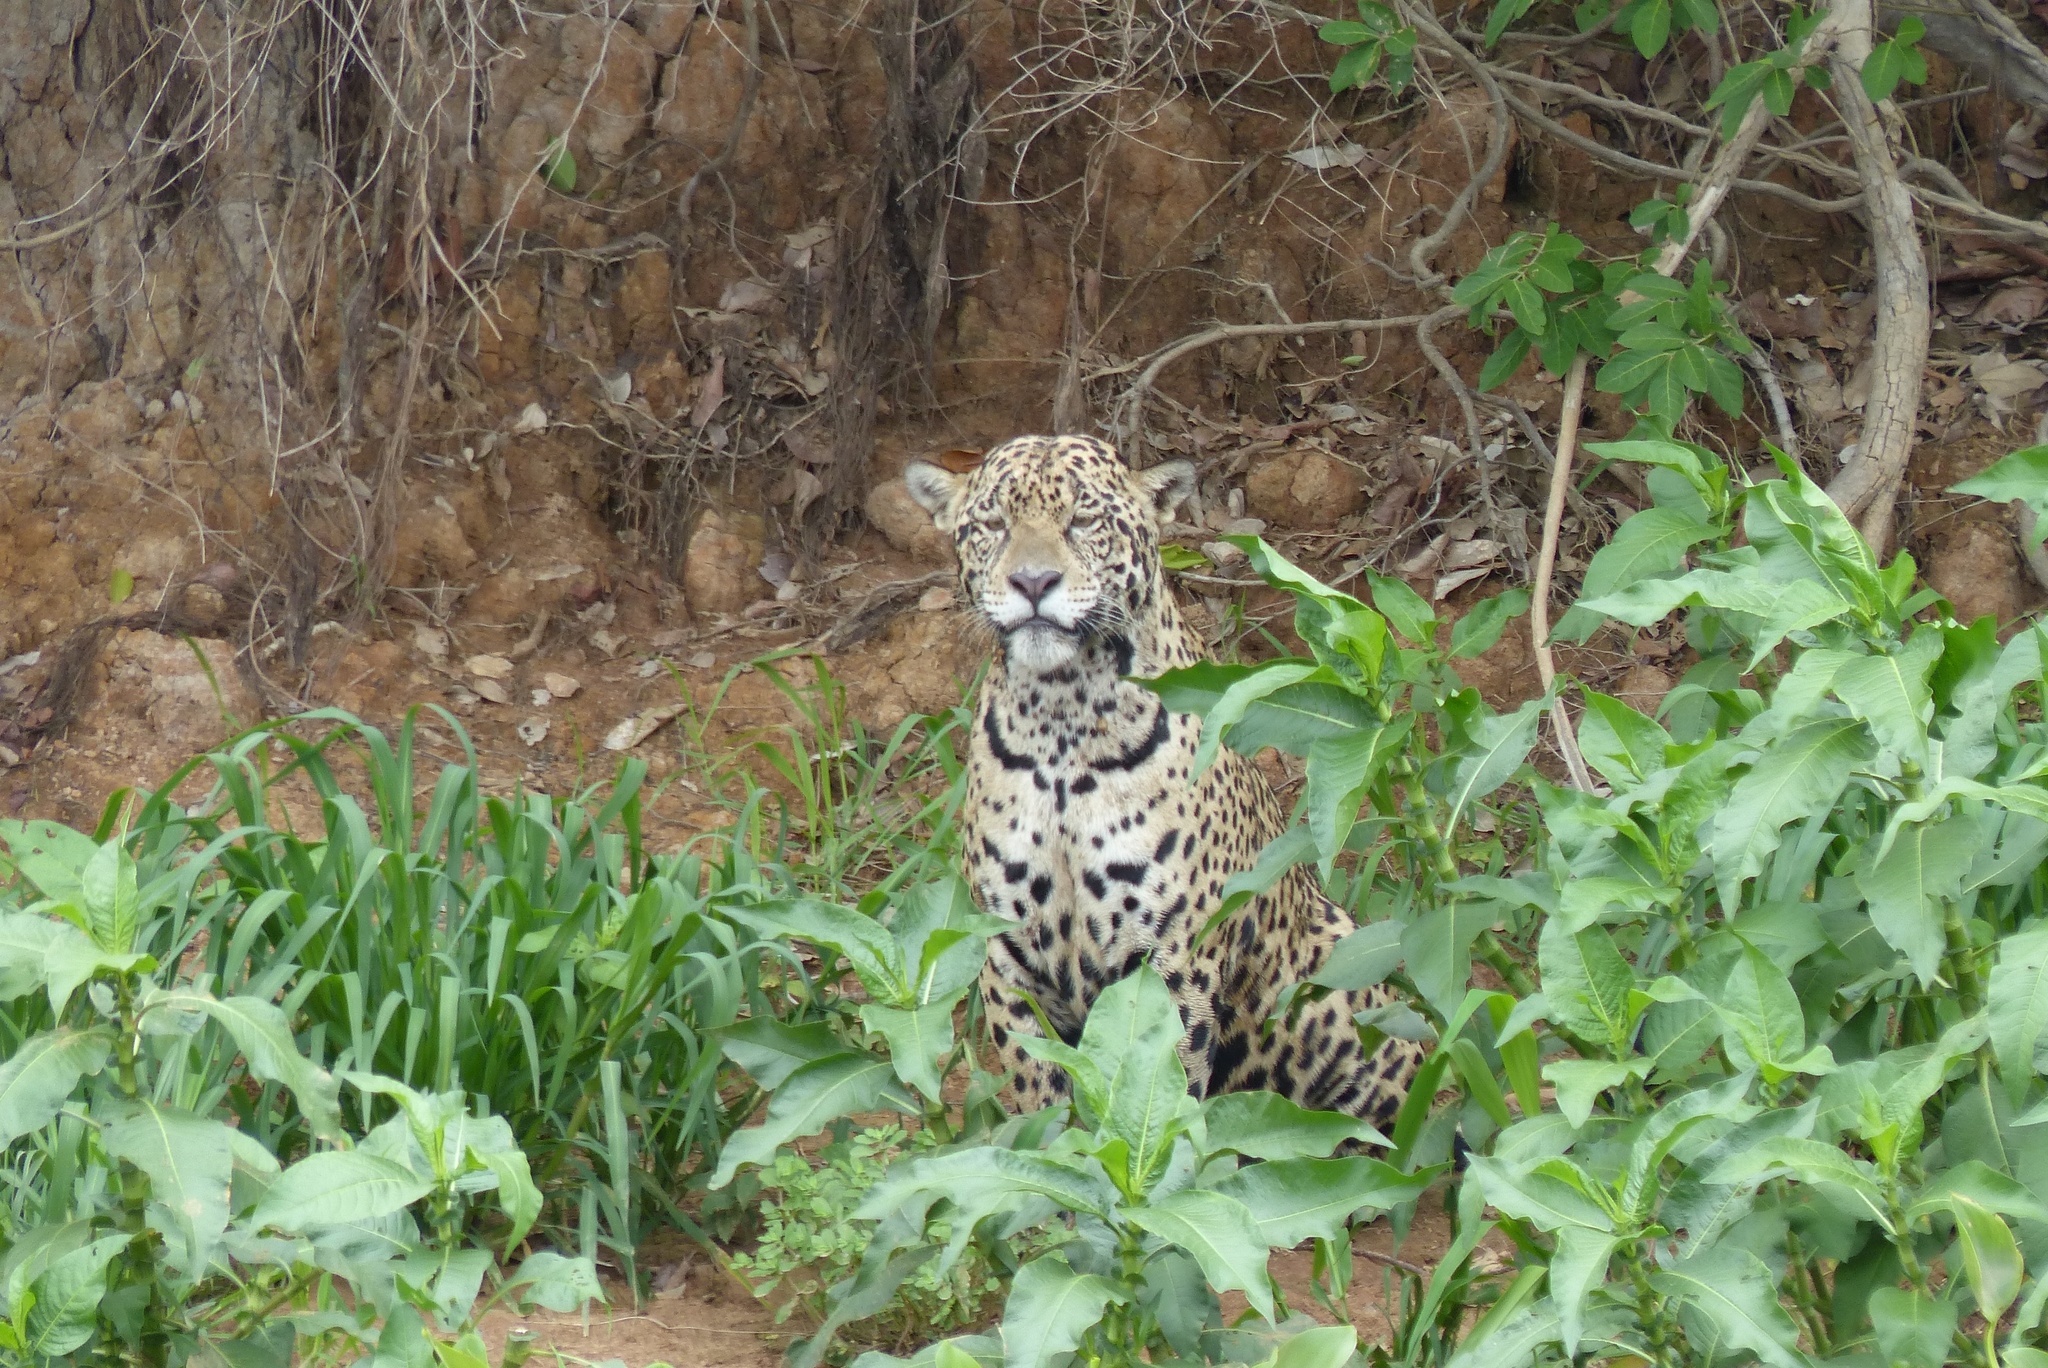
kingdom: Animalia
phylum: Chordata
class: Mammalia
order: Carnivora
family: Felidae
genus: Panthera
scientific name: Panthera onca
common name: Jaguar
